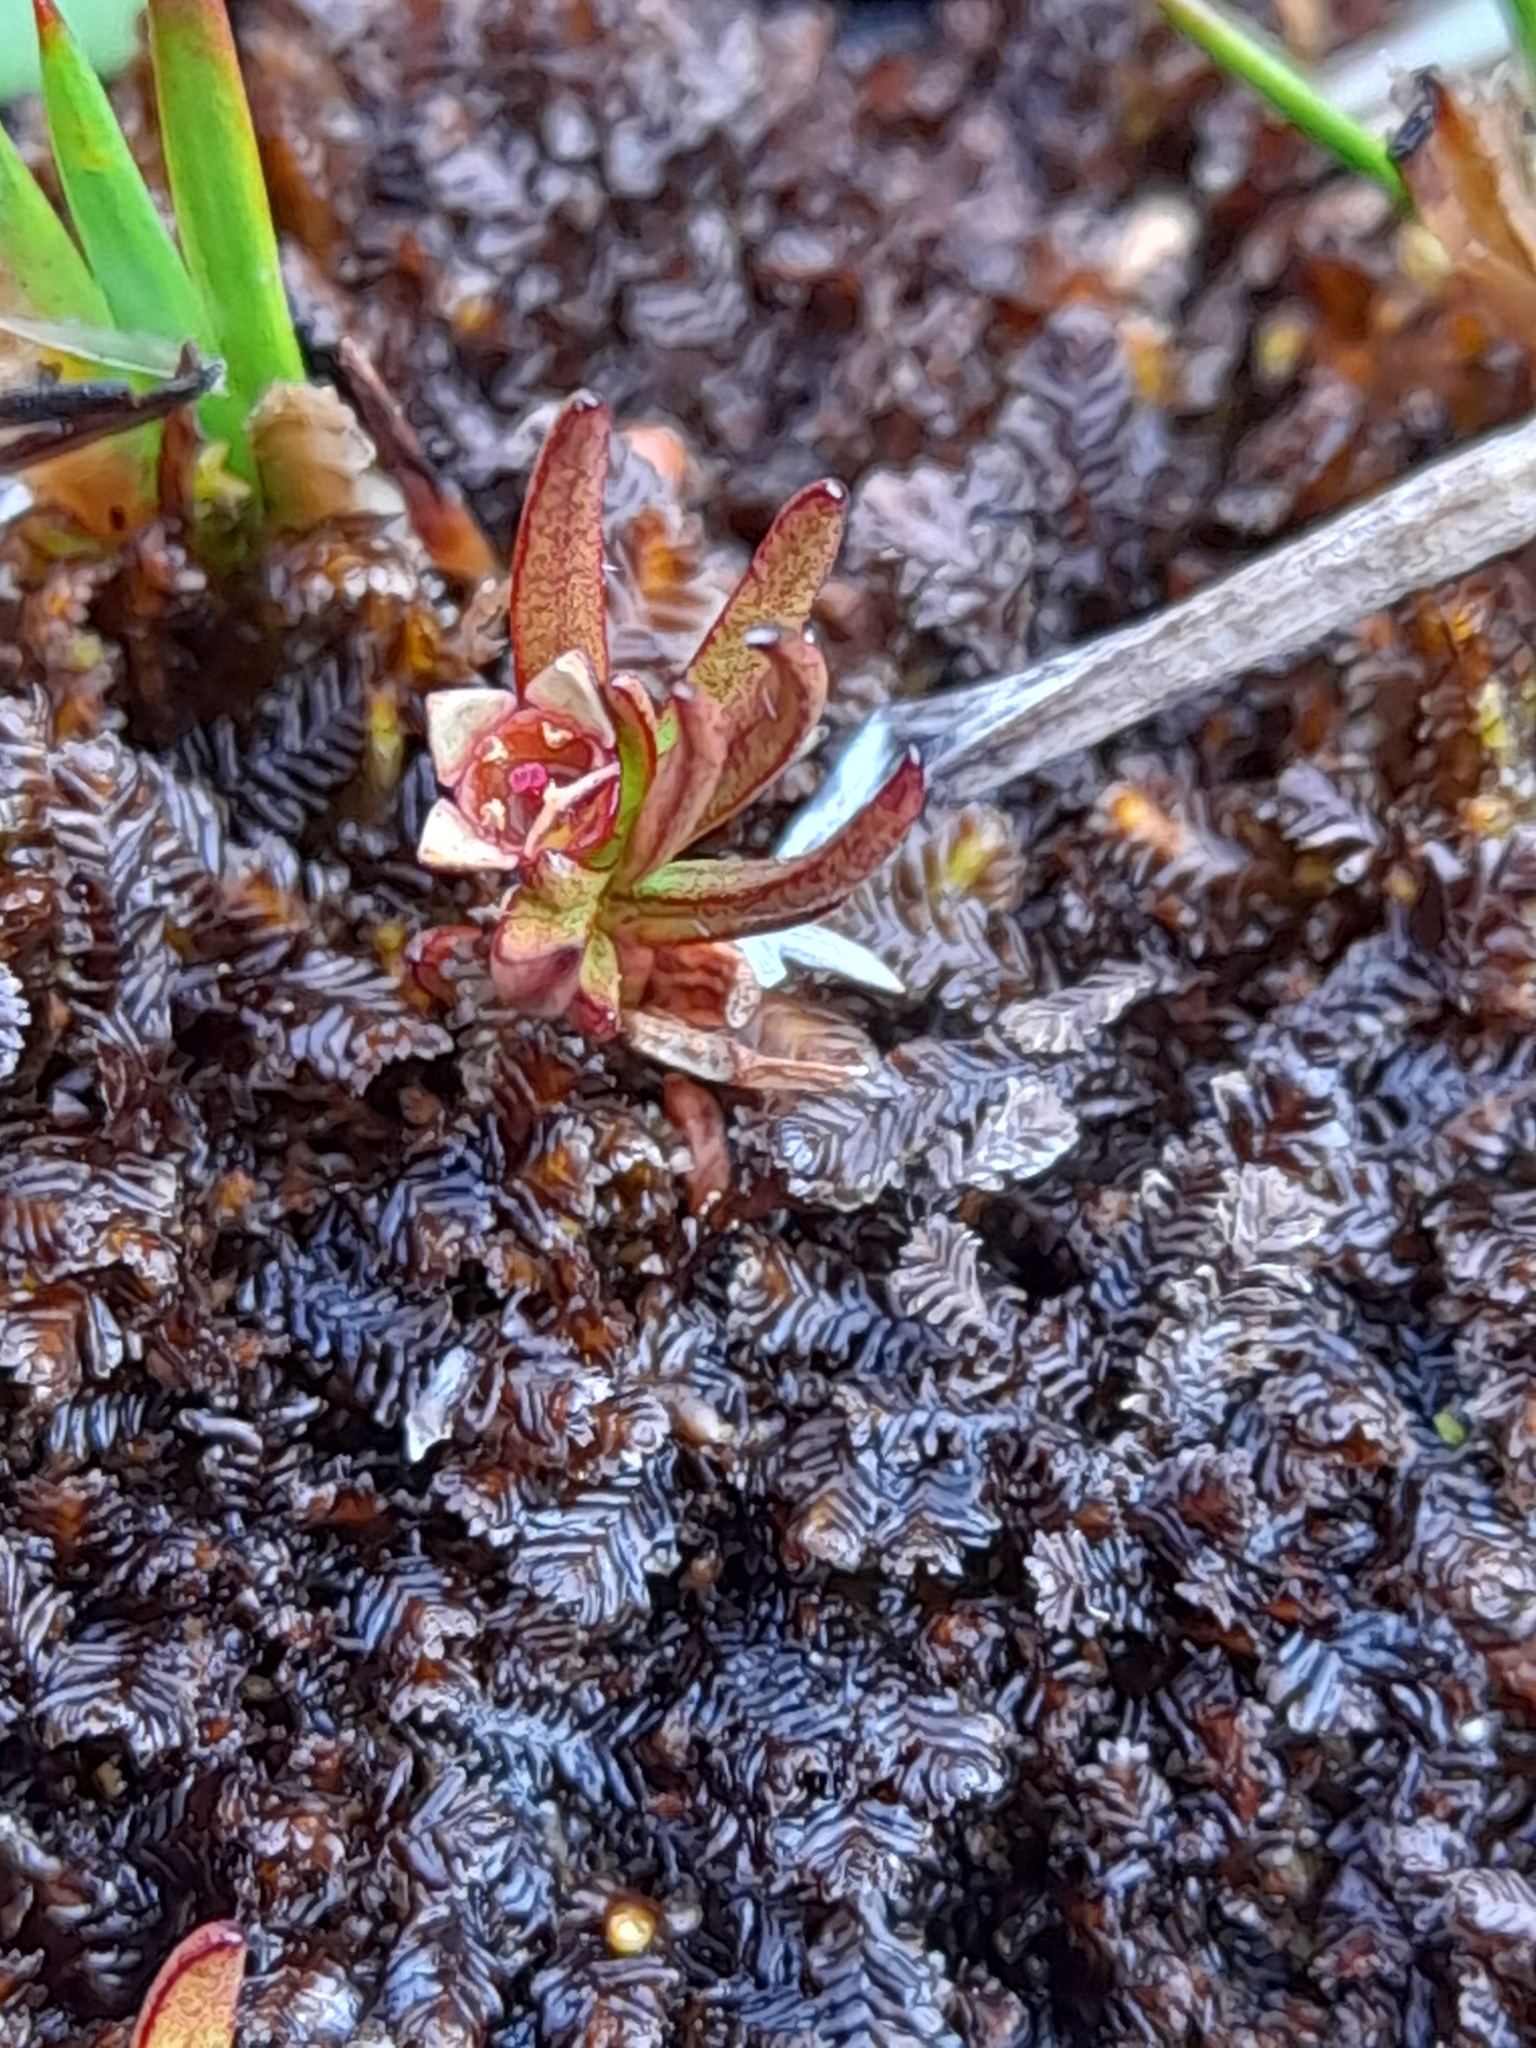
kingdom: Plantae
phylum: Tracheophyta
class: Magnoliopsida
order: Santalales
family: Nanodeaceae
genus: Nanodea
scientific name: Nanodea muscosa
